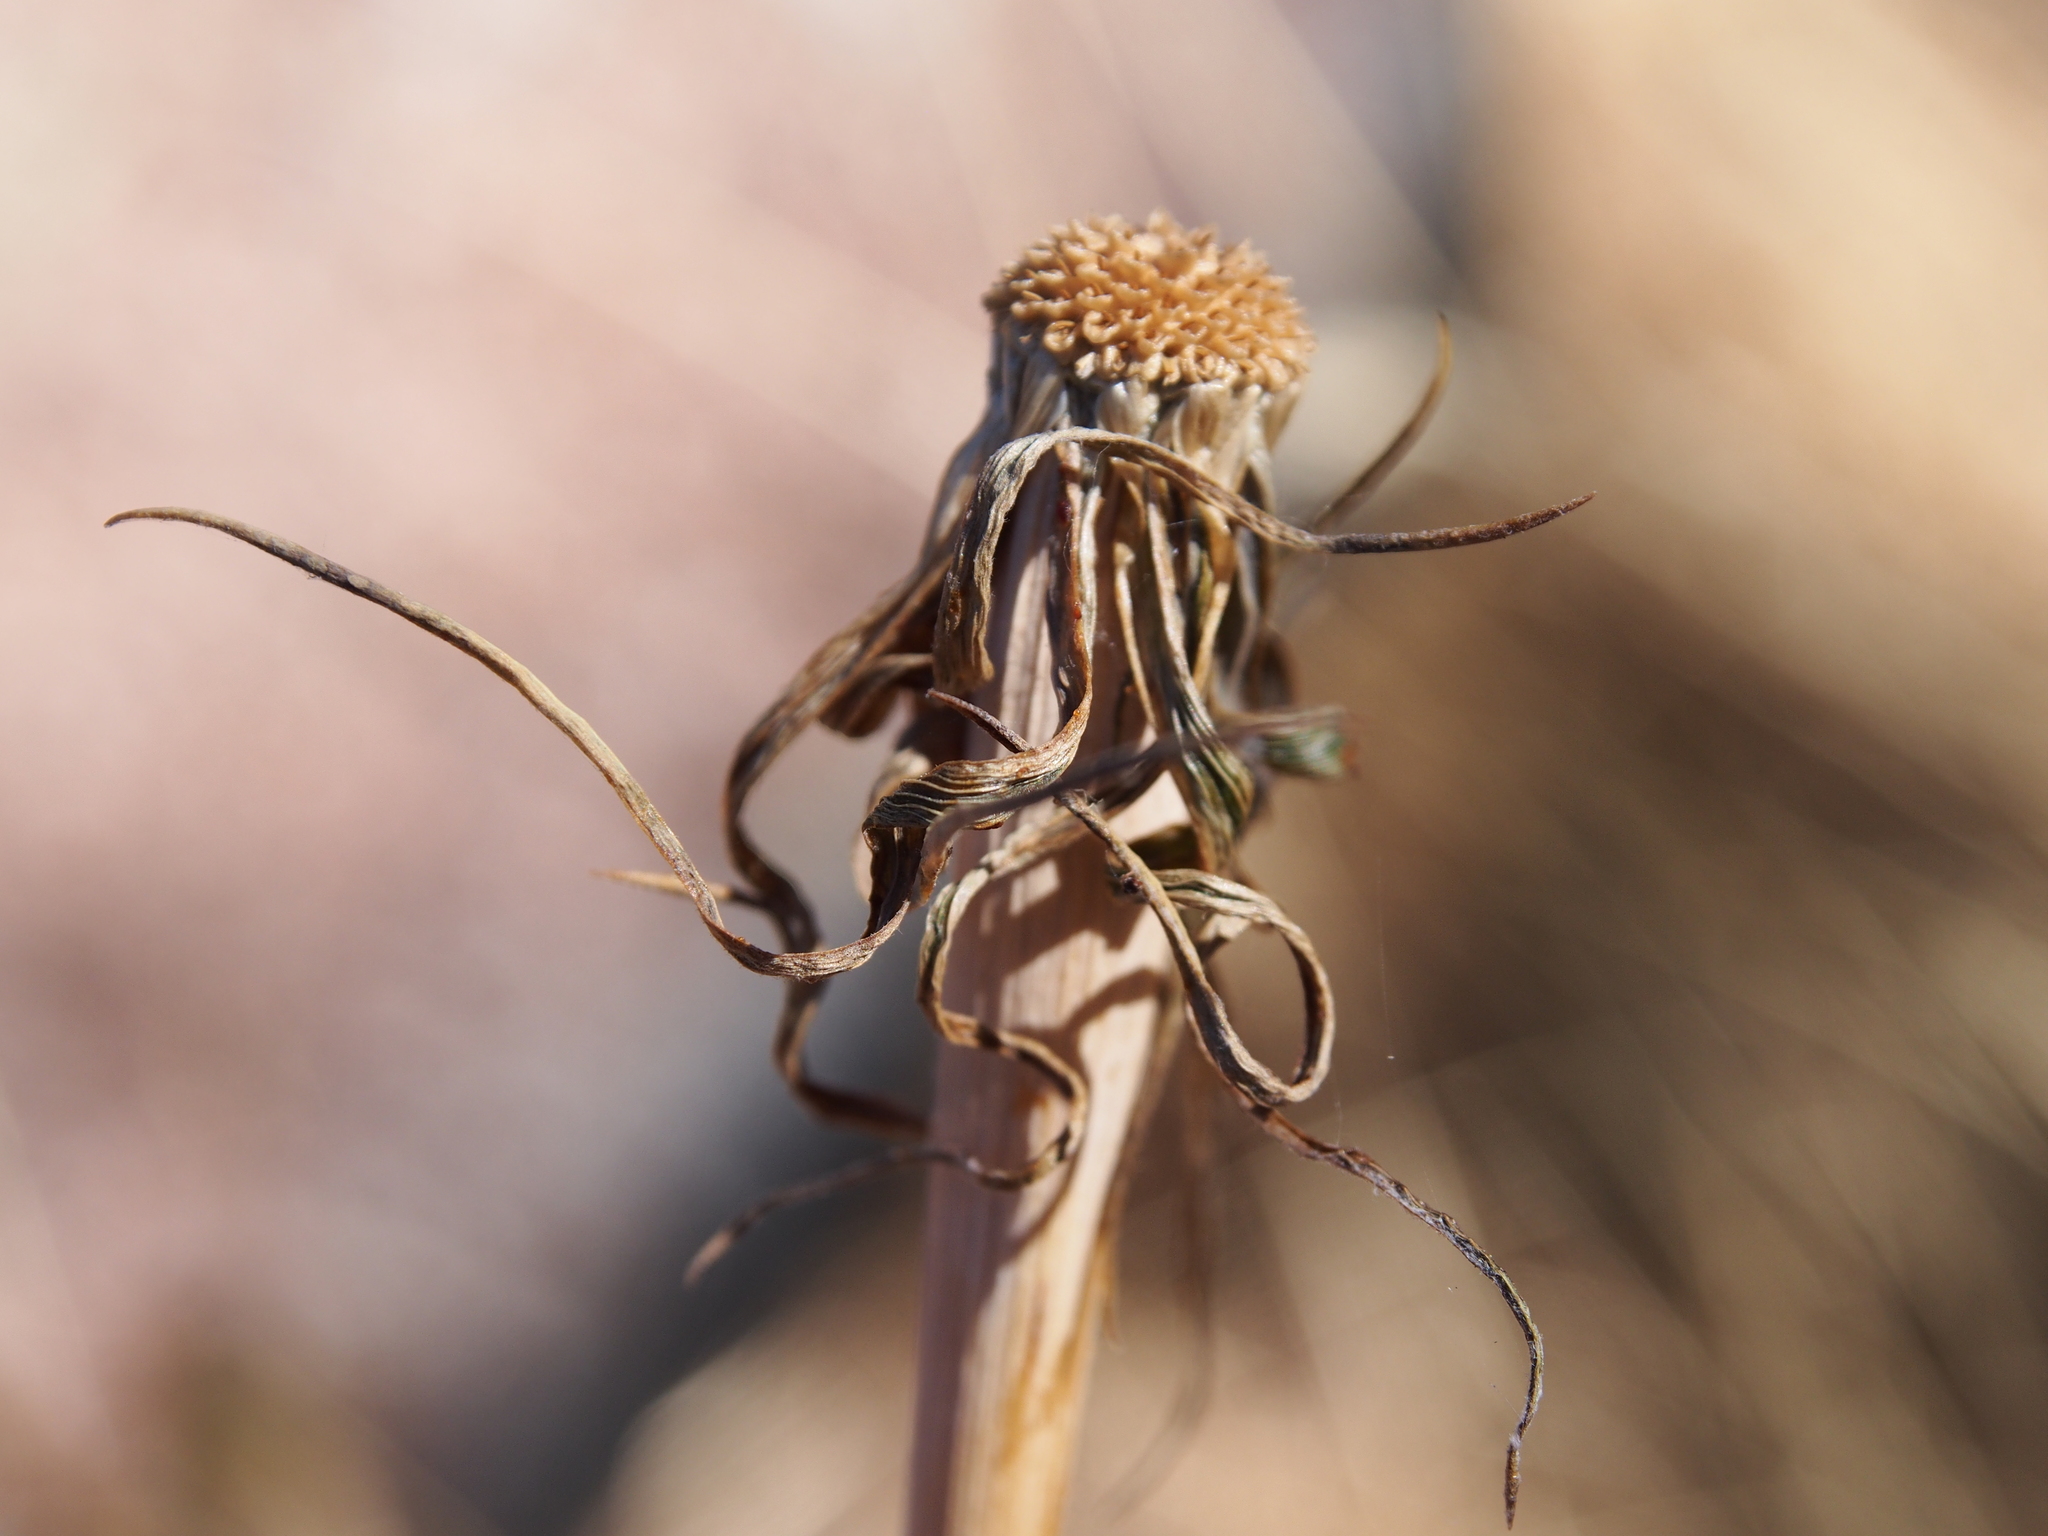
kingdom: Plantae
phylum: Tracheophyta
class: Magnoliopsida
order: Asterales
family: Asteraceae
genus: Tragopogon
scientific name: Tragopogon dubius
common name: Yellow salsify
